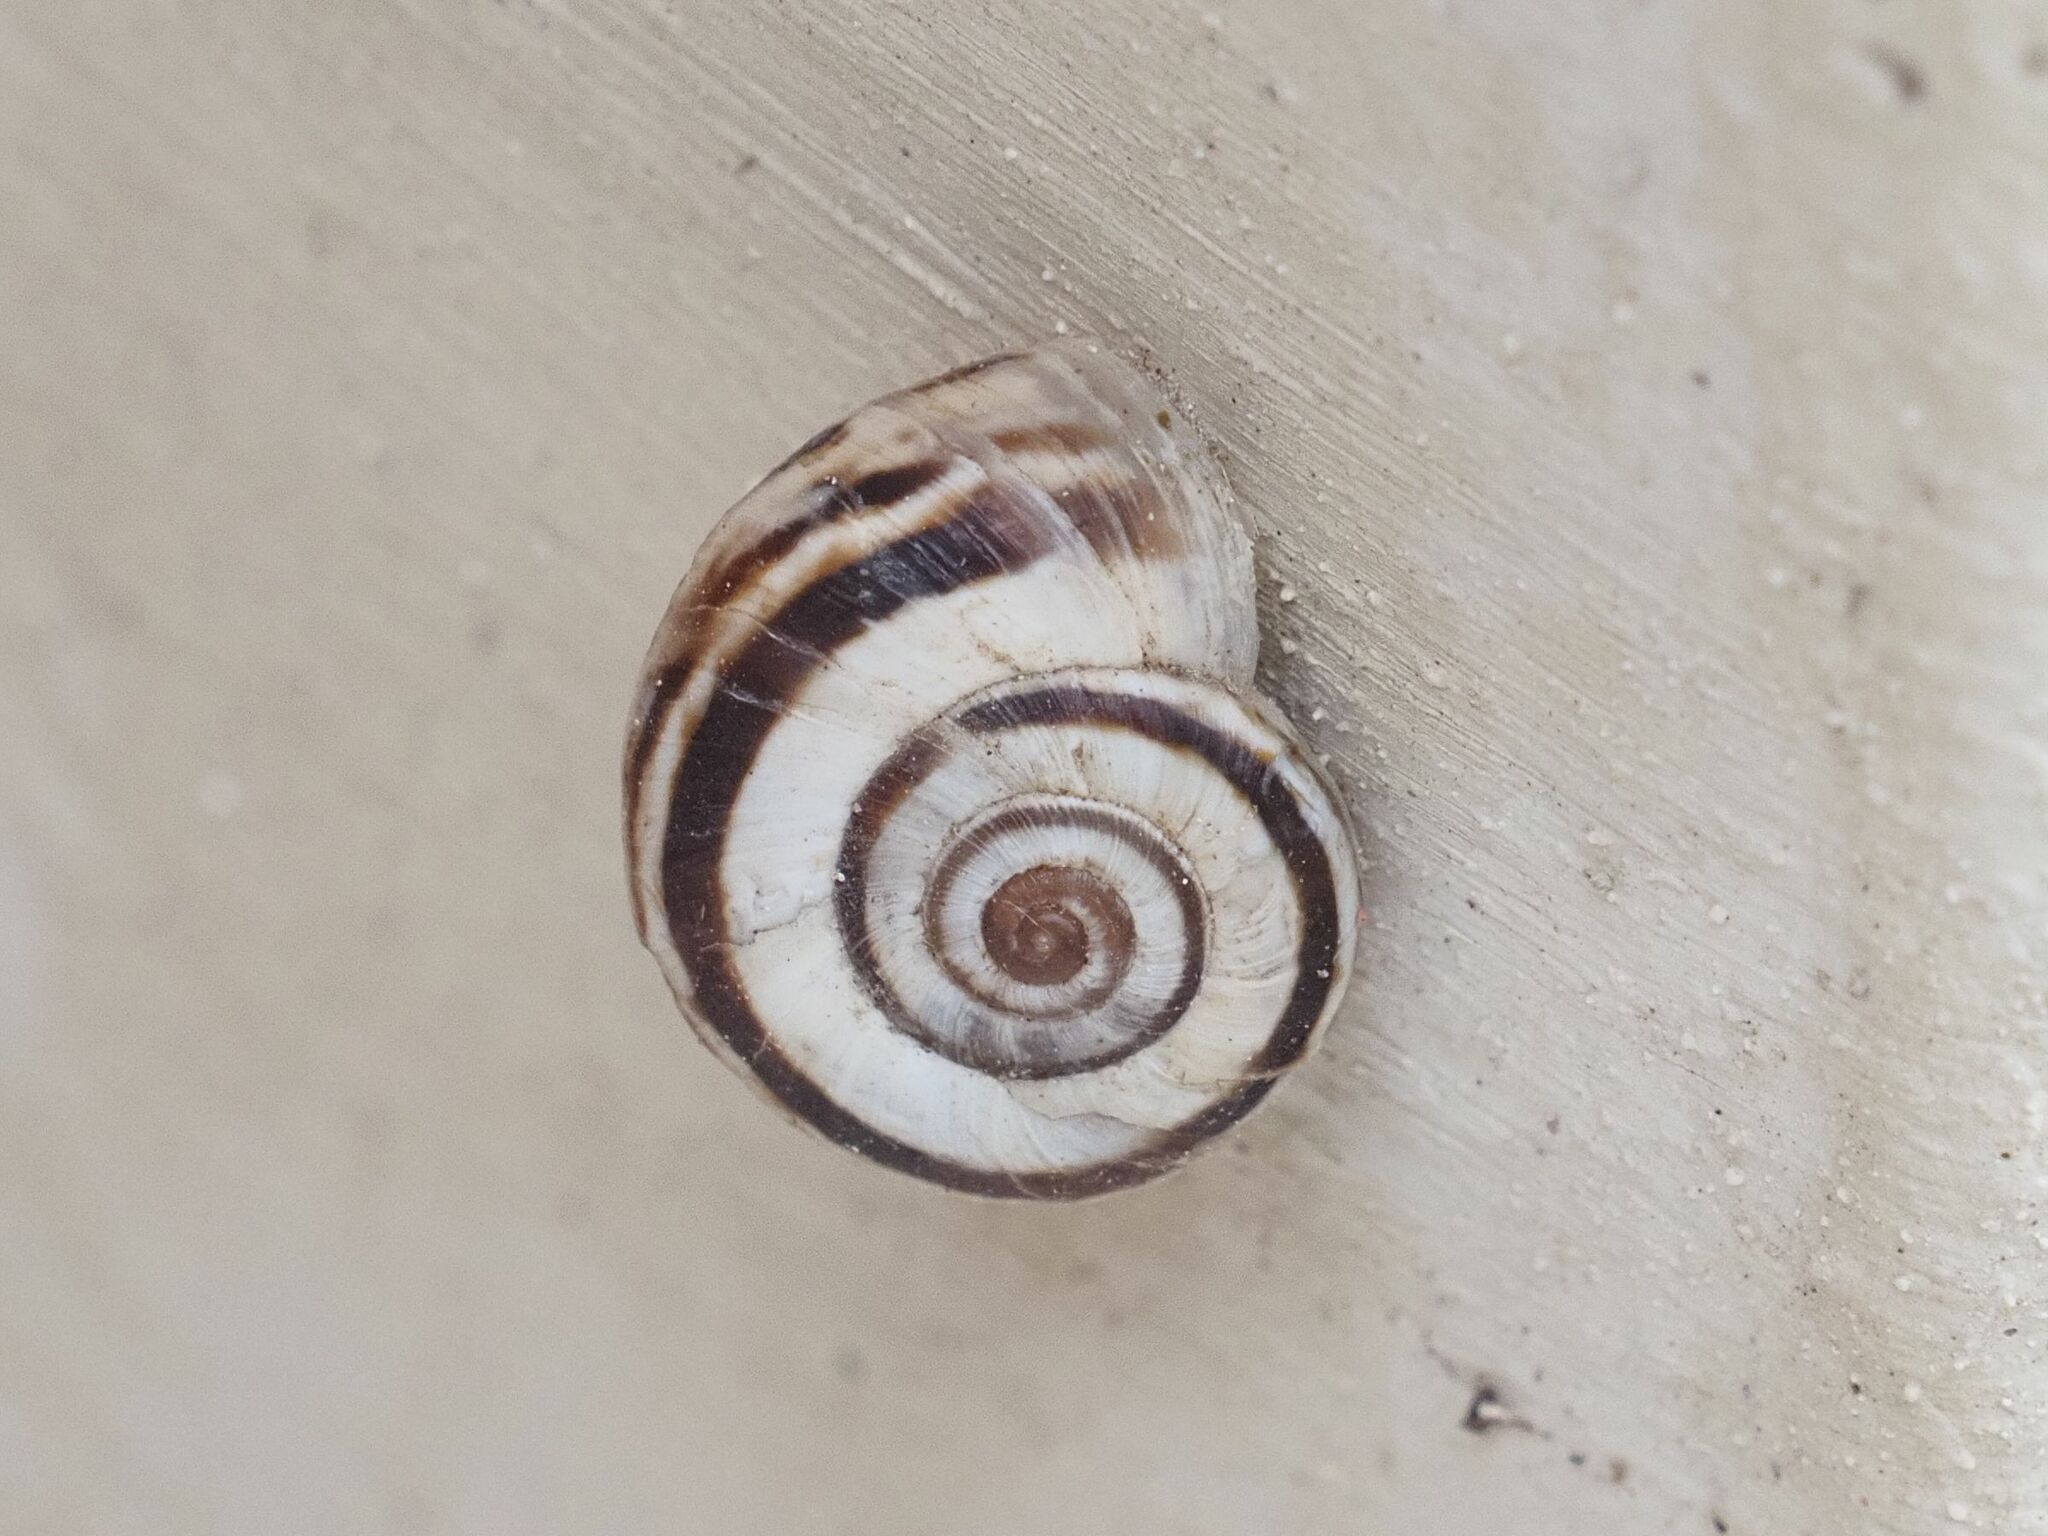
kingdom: Animalia
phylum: Mollusca
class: Gastropoda
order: Stylommatophora
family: Geomitridae
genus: Xerolenta
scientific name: Xerolenta obvia
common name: White heath snail
